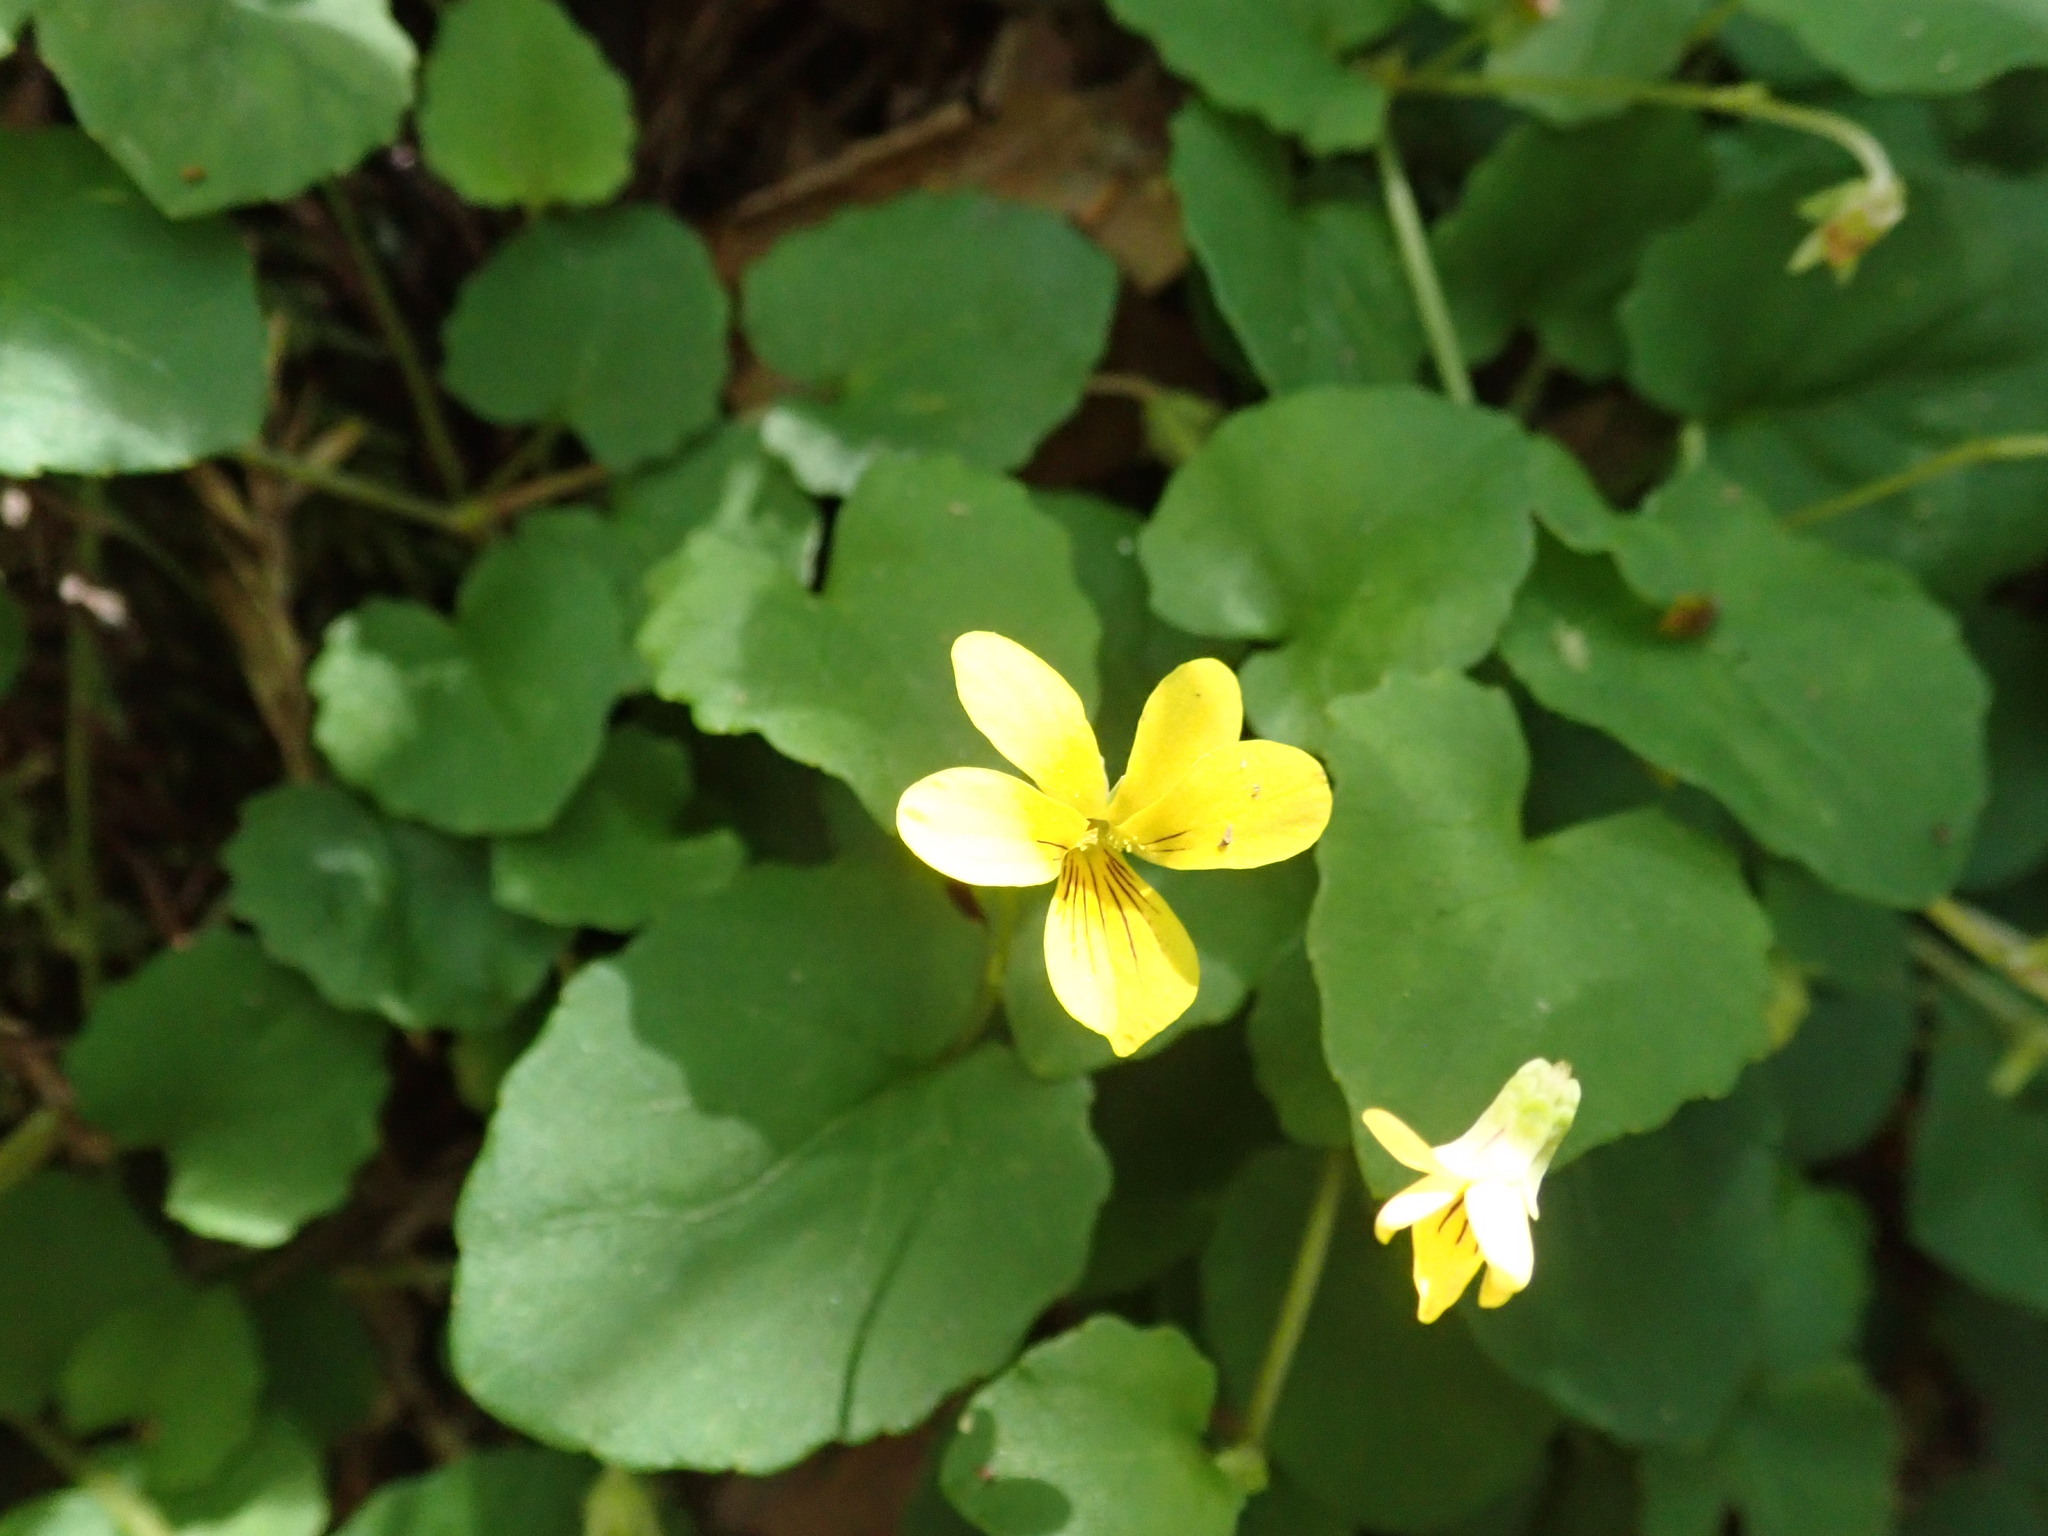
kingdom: Plantae
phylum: Tracheophyta
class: Magnoliopsida
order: Malpighiales
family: Violaceae
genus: Viola
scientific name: Viola sempervirens
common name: Evergreen violet
